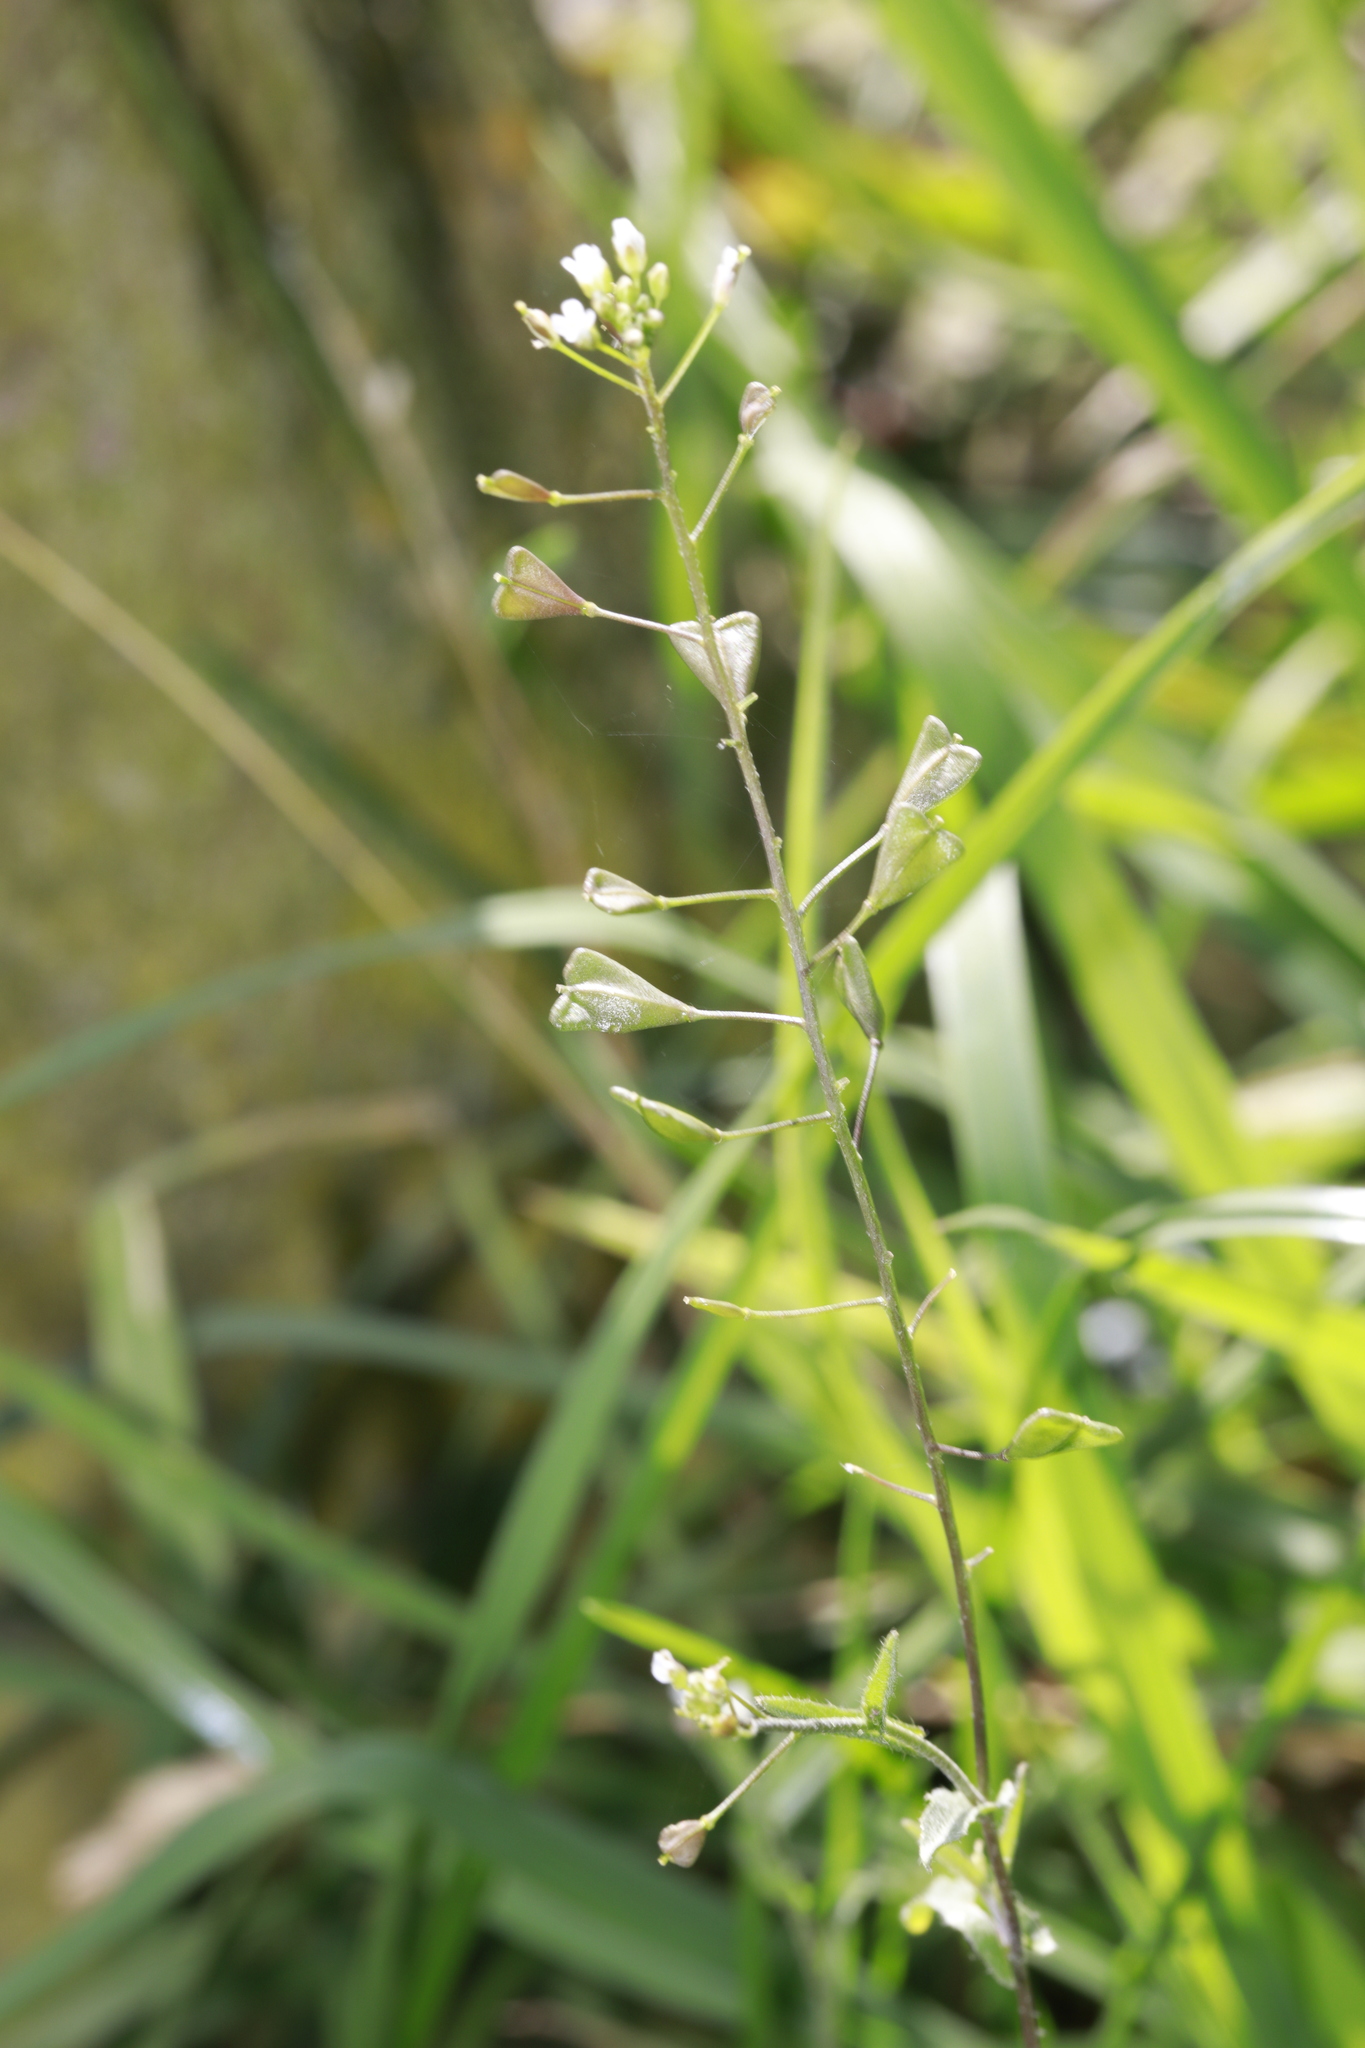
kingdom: Plantae
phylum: Tracheophyta
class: Magnoliopsida
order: Brassicales
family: Brassicaceae
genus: Capsella
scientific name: Capsella bursa-pastoris
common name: Shepherd's purse
